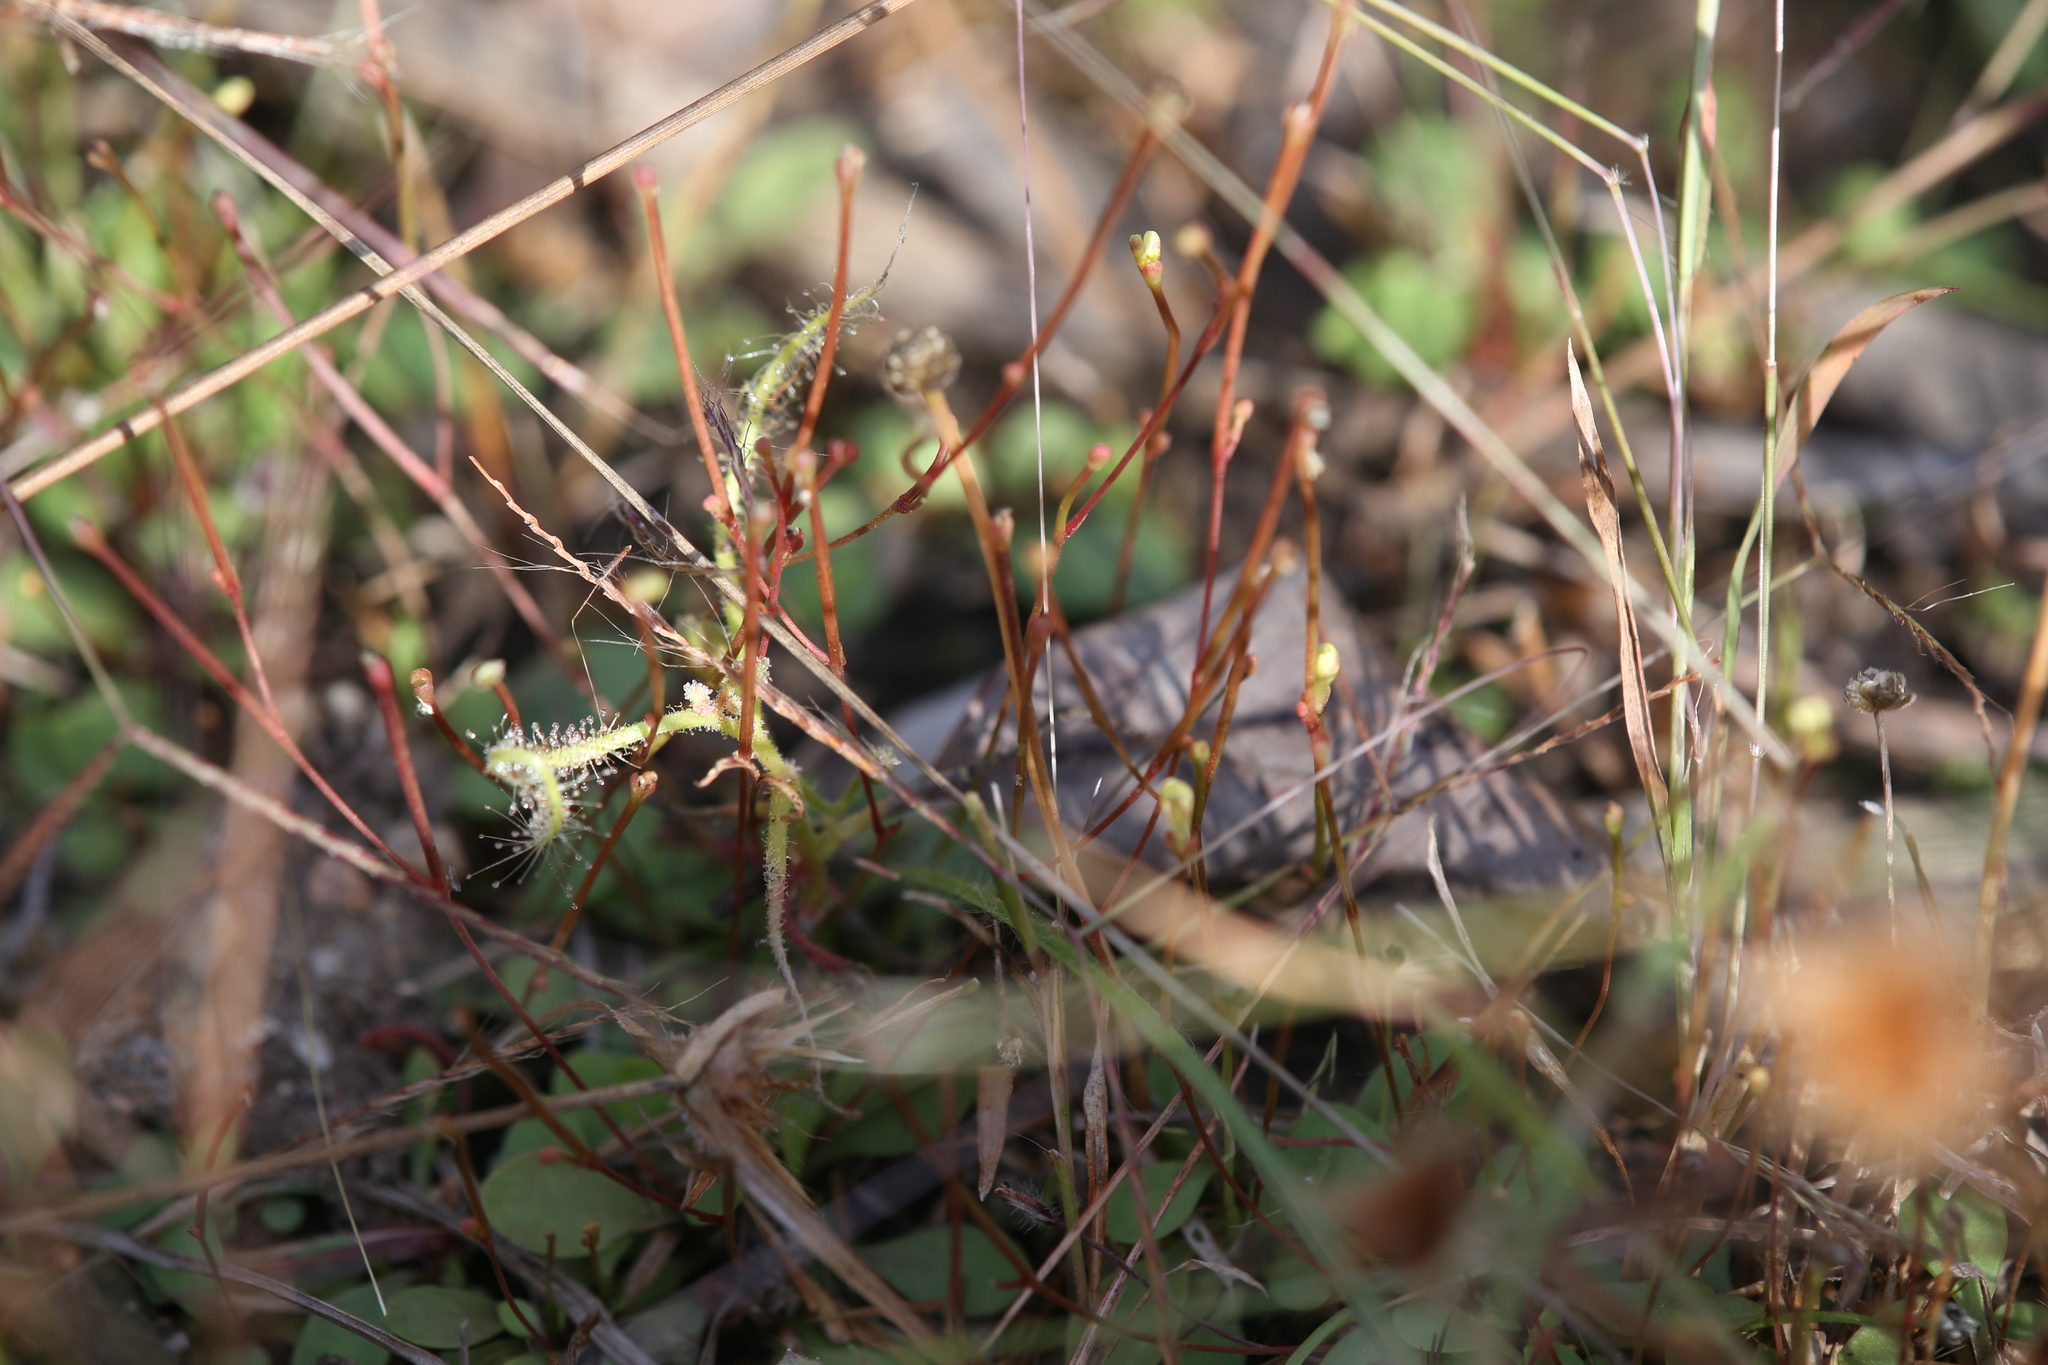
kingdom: Plantae
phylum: Tracheophyta
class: Magnoliopsida
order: Asterales
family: Stylidiaceae
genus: Stylidium
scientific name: Stylidium rotundifolium
